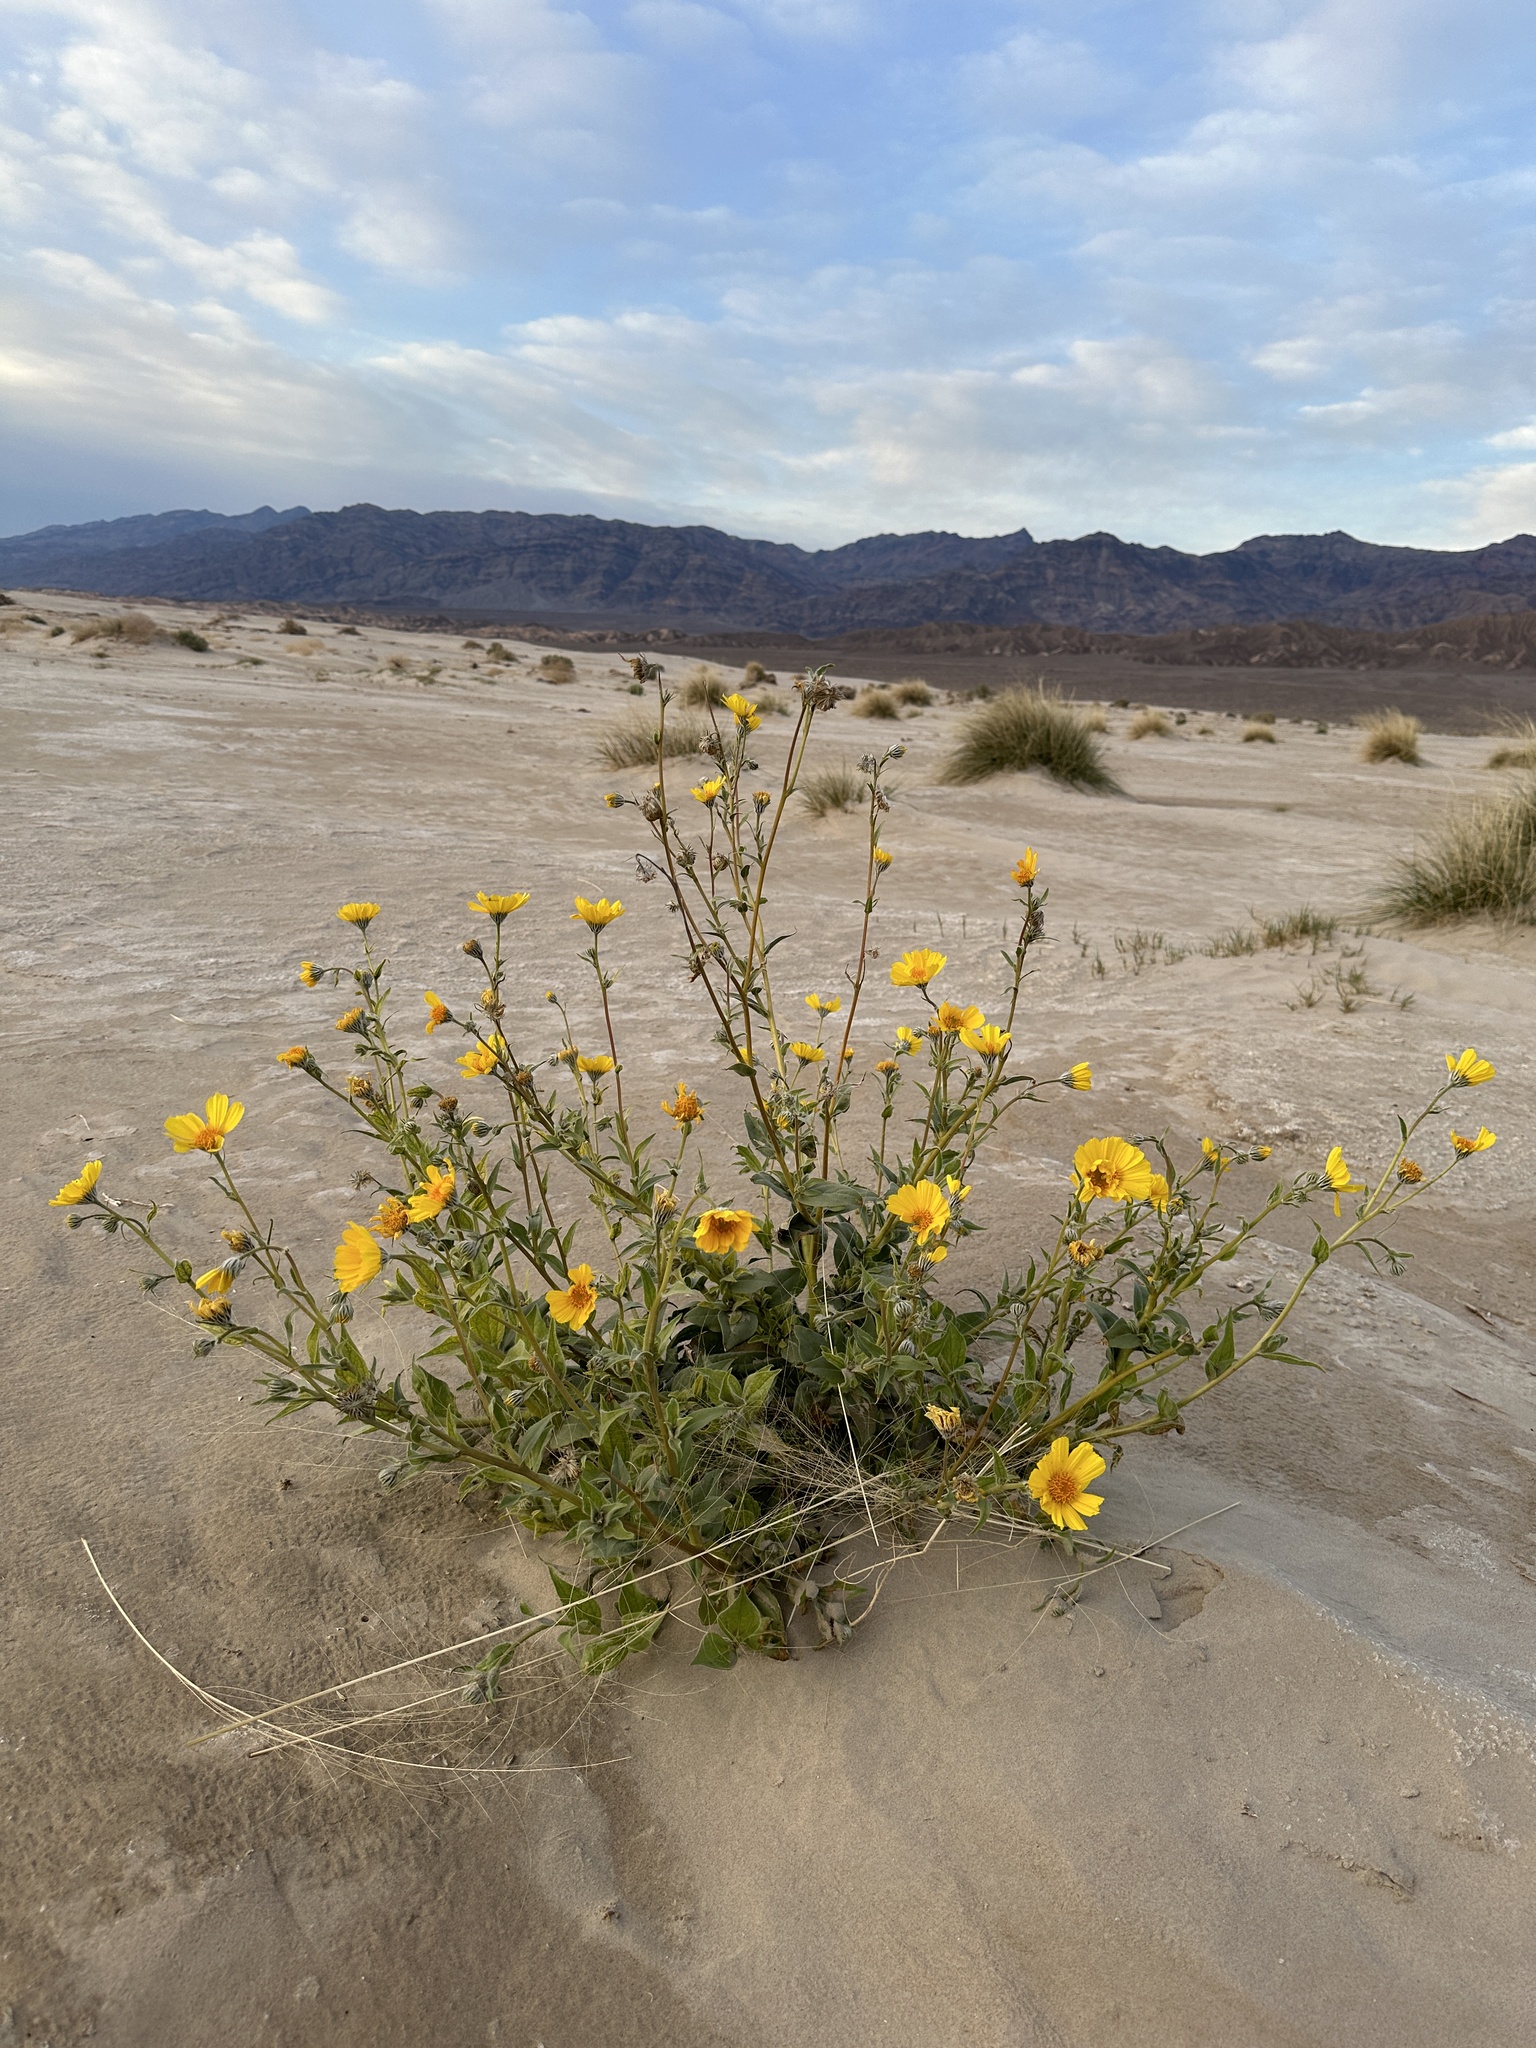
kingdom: Plantae
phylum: Tracheophyta
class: Magnoliopsida
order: Asterales
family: Asteraceae
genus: Geraea
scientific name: Geraea canescens
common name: Desert-gold
